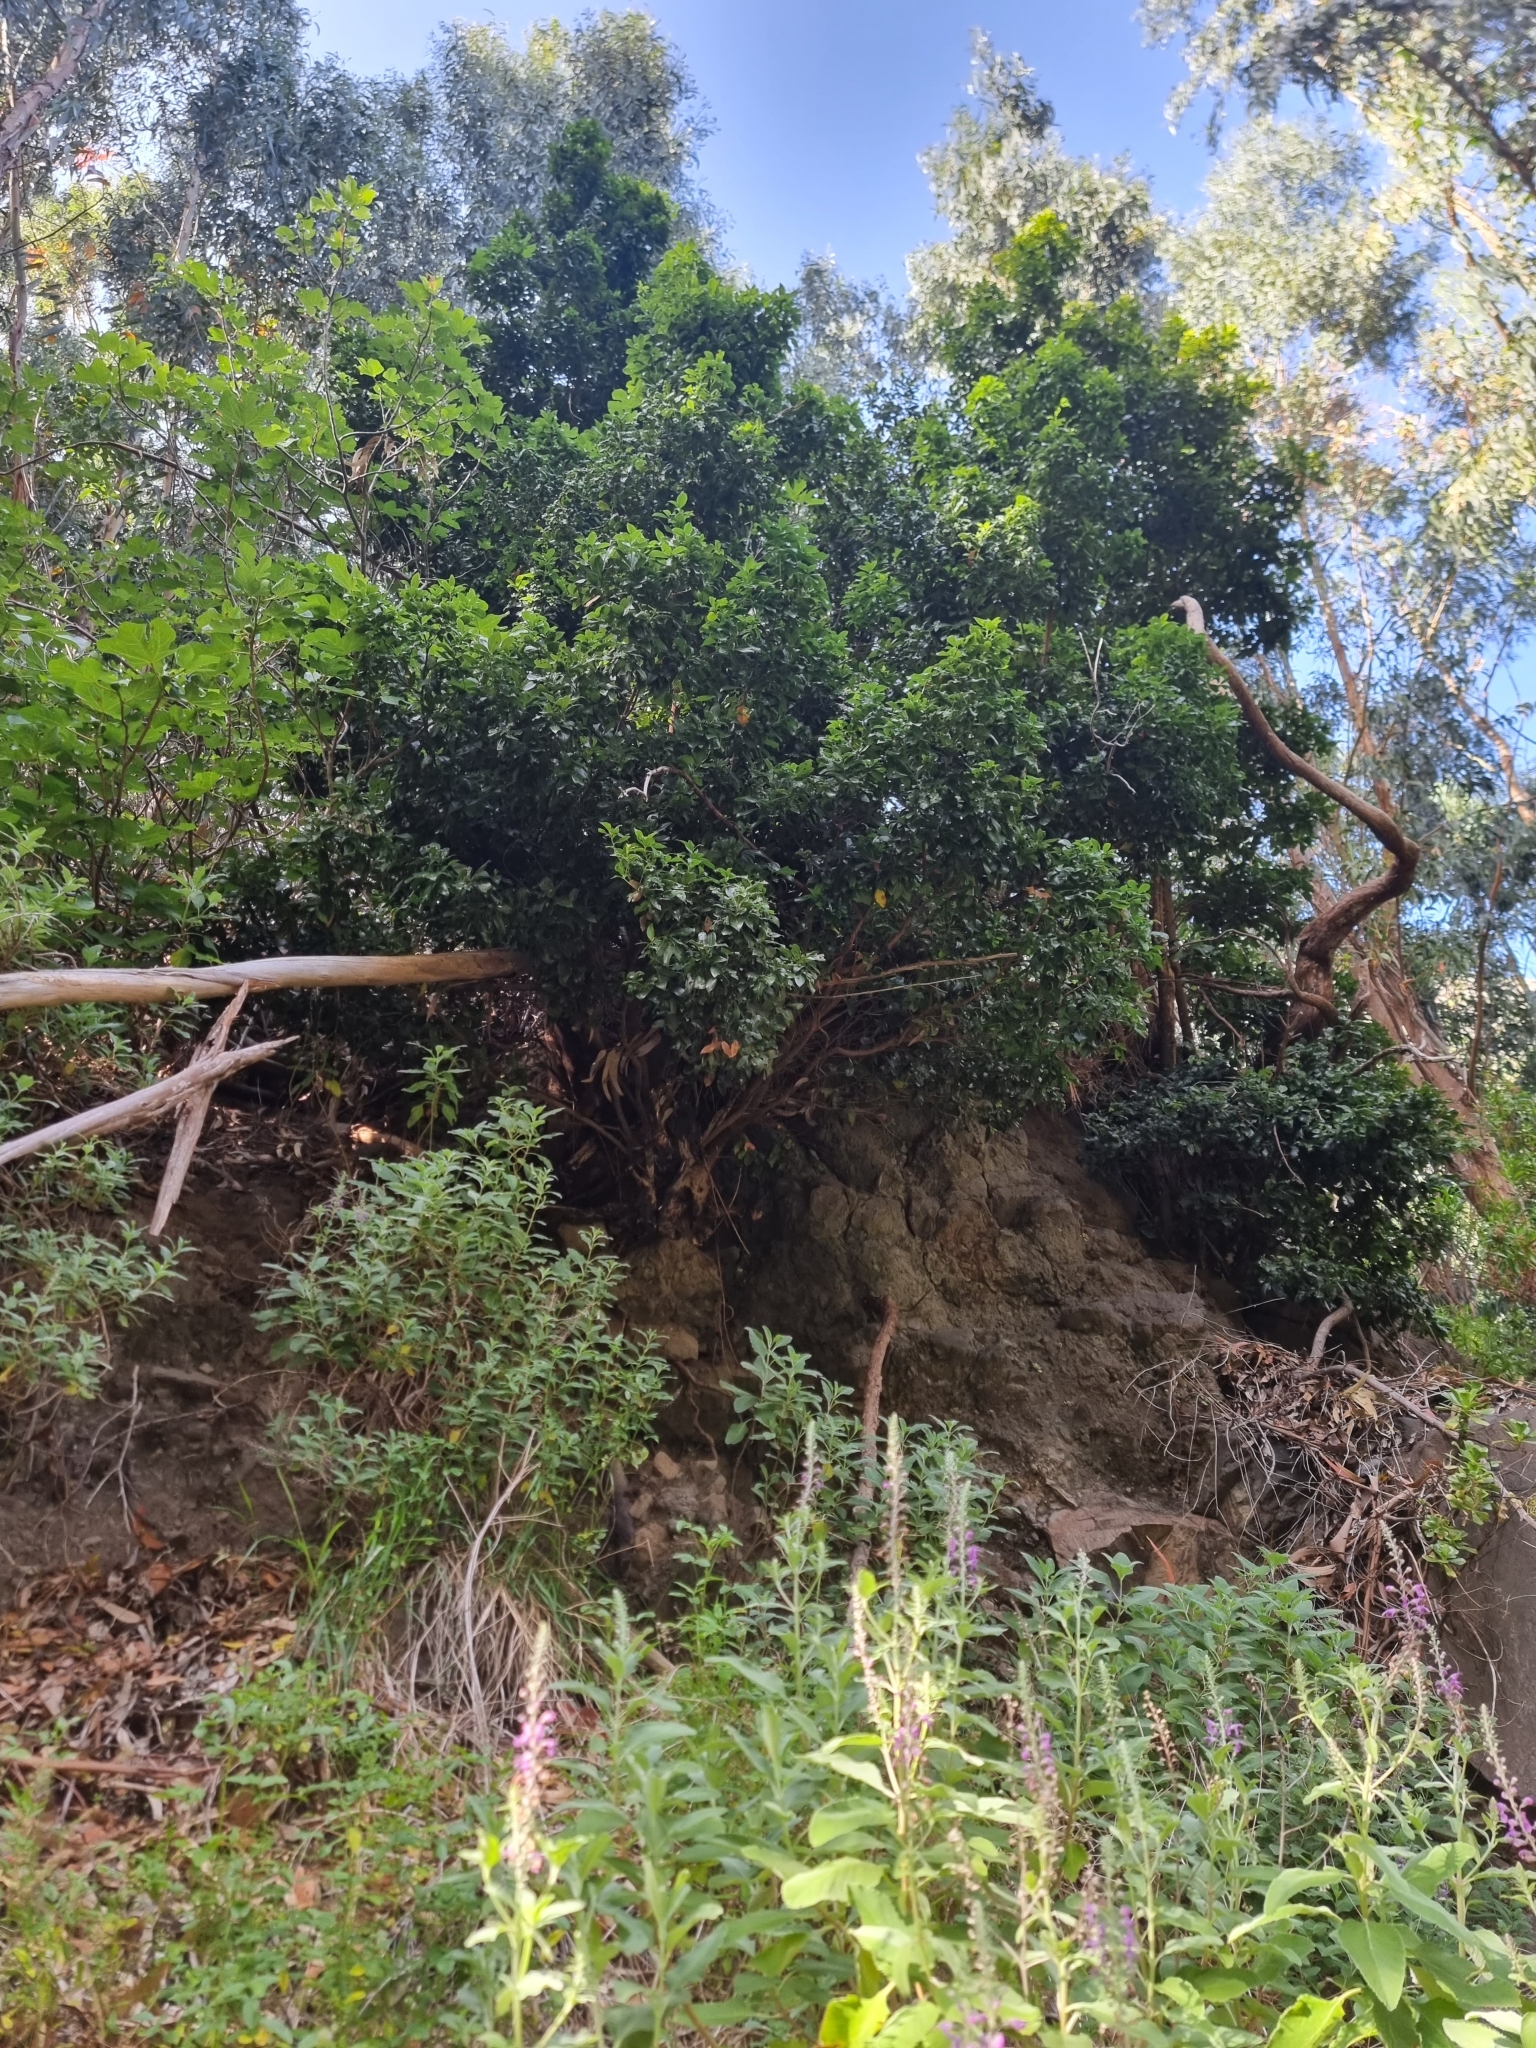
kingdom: Plantae
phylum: Tracheophyta
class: Magnoliopsida
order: Laurales
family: Lauraceae
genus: Apollonias
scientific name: Apollonias barbujana
